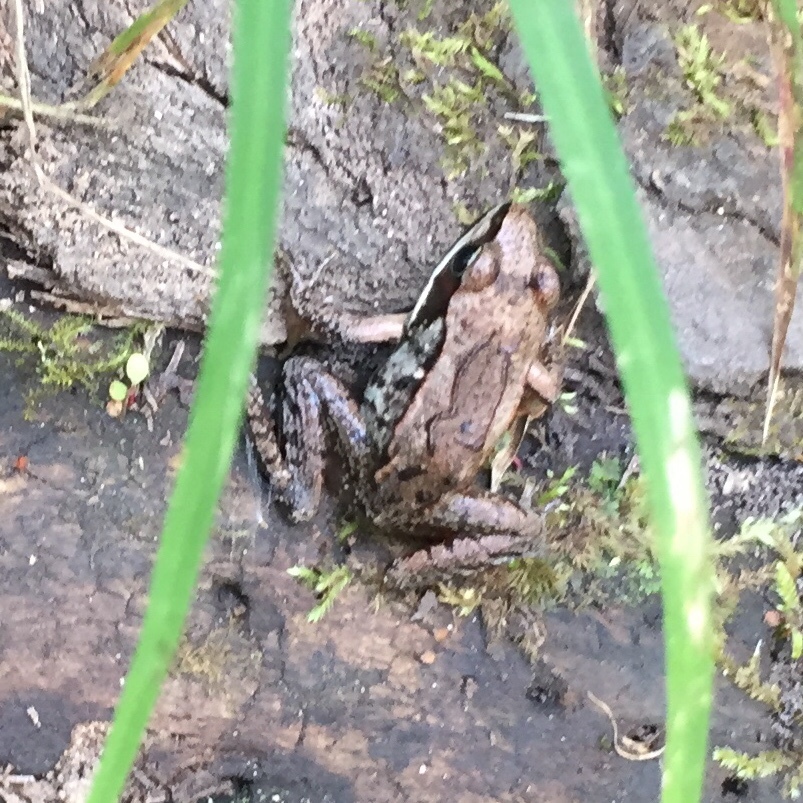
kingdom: Animalia
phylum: Chordata
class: Amphibia
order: Anura
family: Ranidae
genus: Lithobates
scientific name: Lithobates sylvaticus
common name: Wood frog
